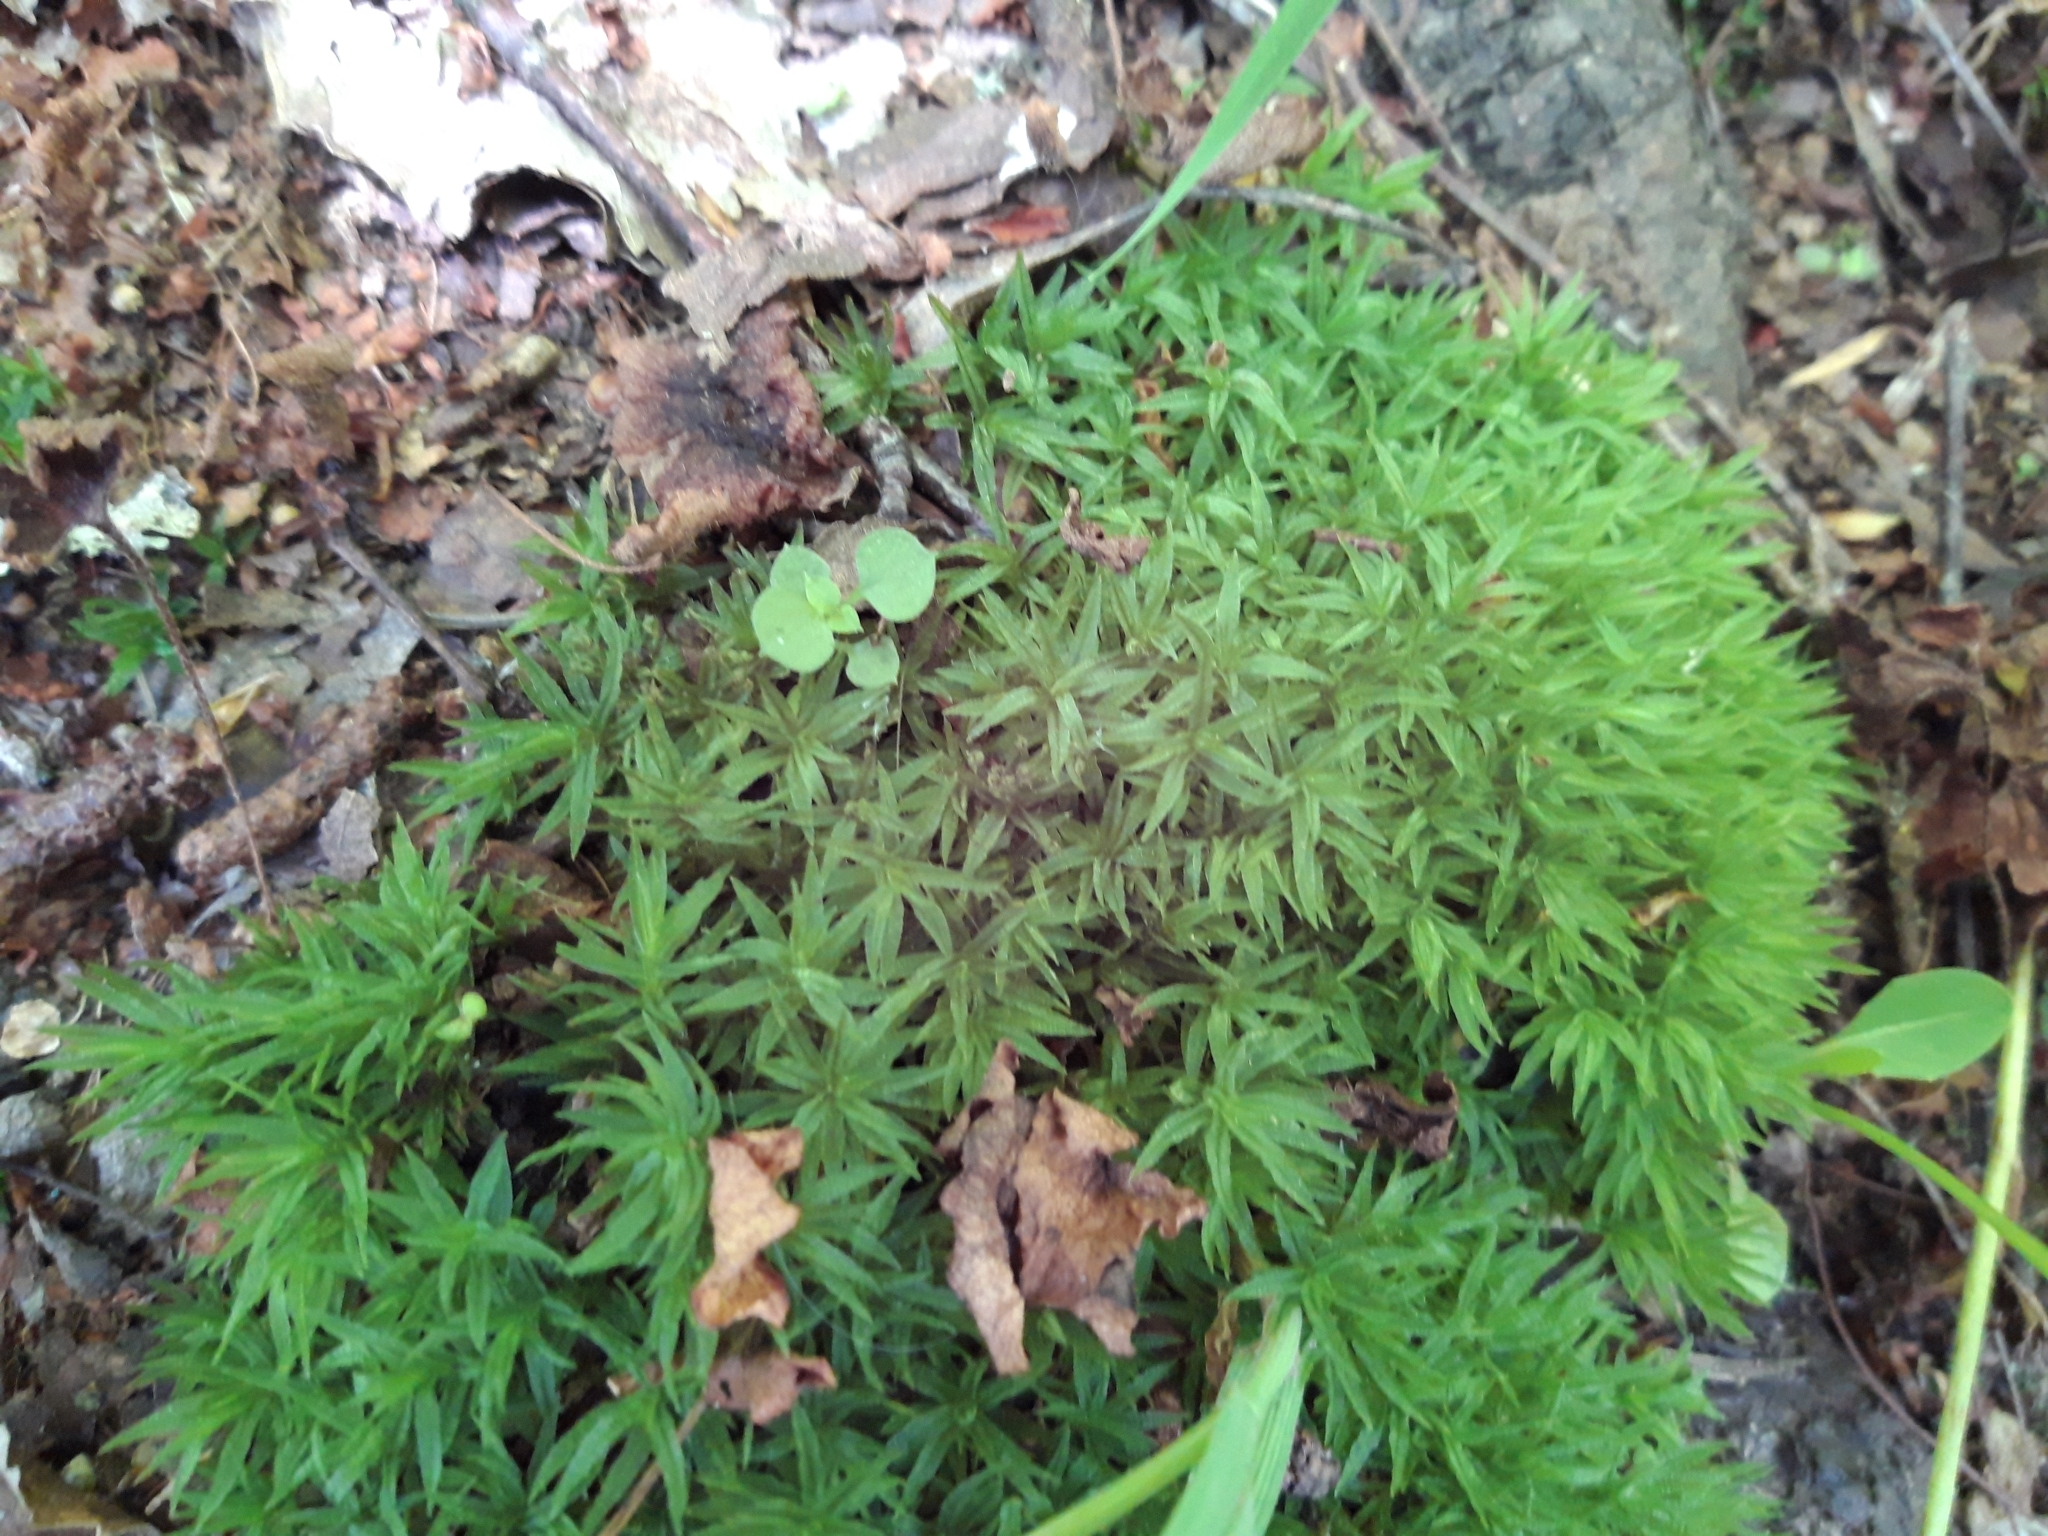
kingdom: Plantae
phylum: Bryophyta
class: Polytrichopsida
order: Polytrichales
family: Polytrichaceae
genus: Atrichum
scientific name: Atrichum undulatum
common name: Common smoothcap
